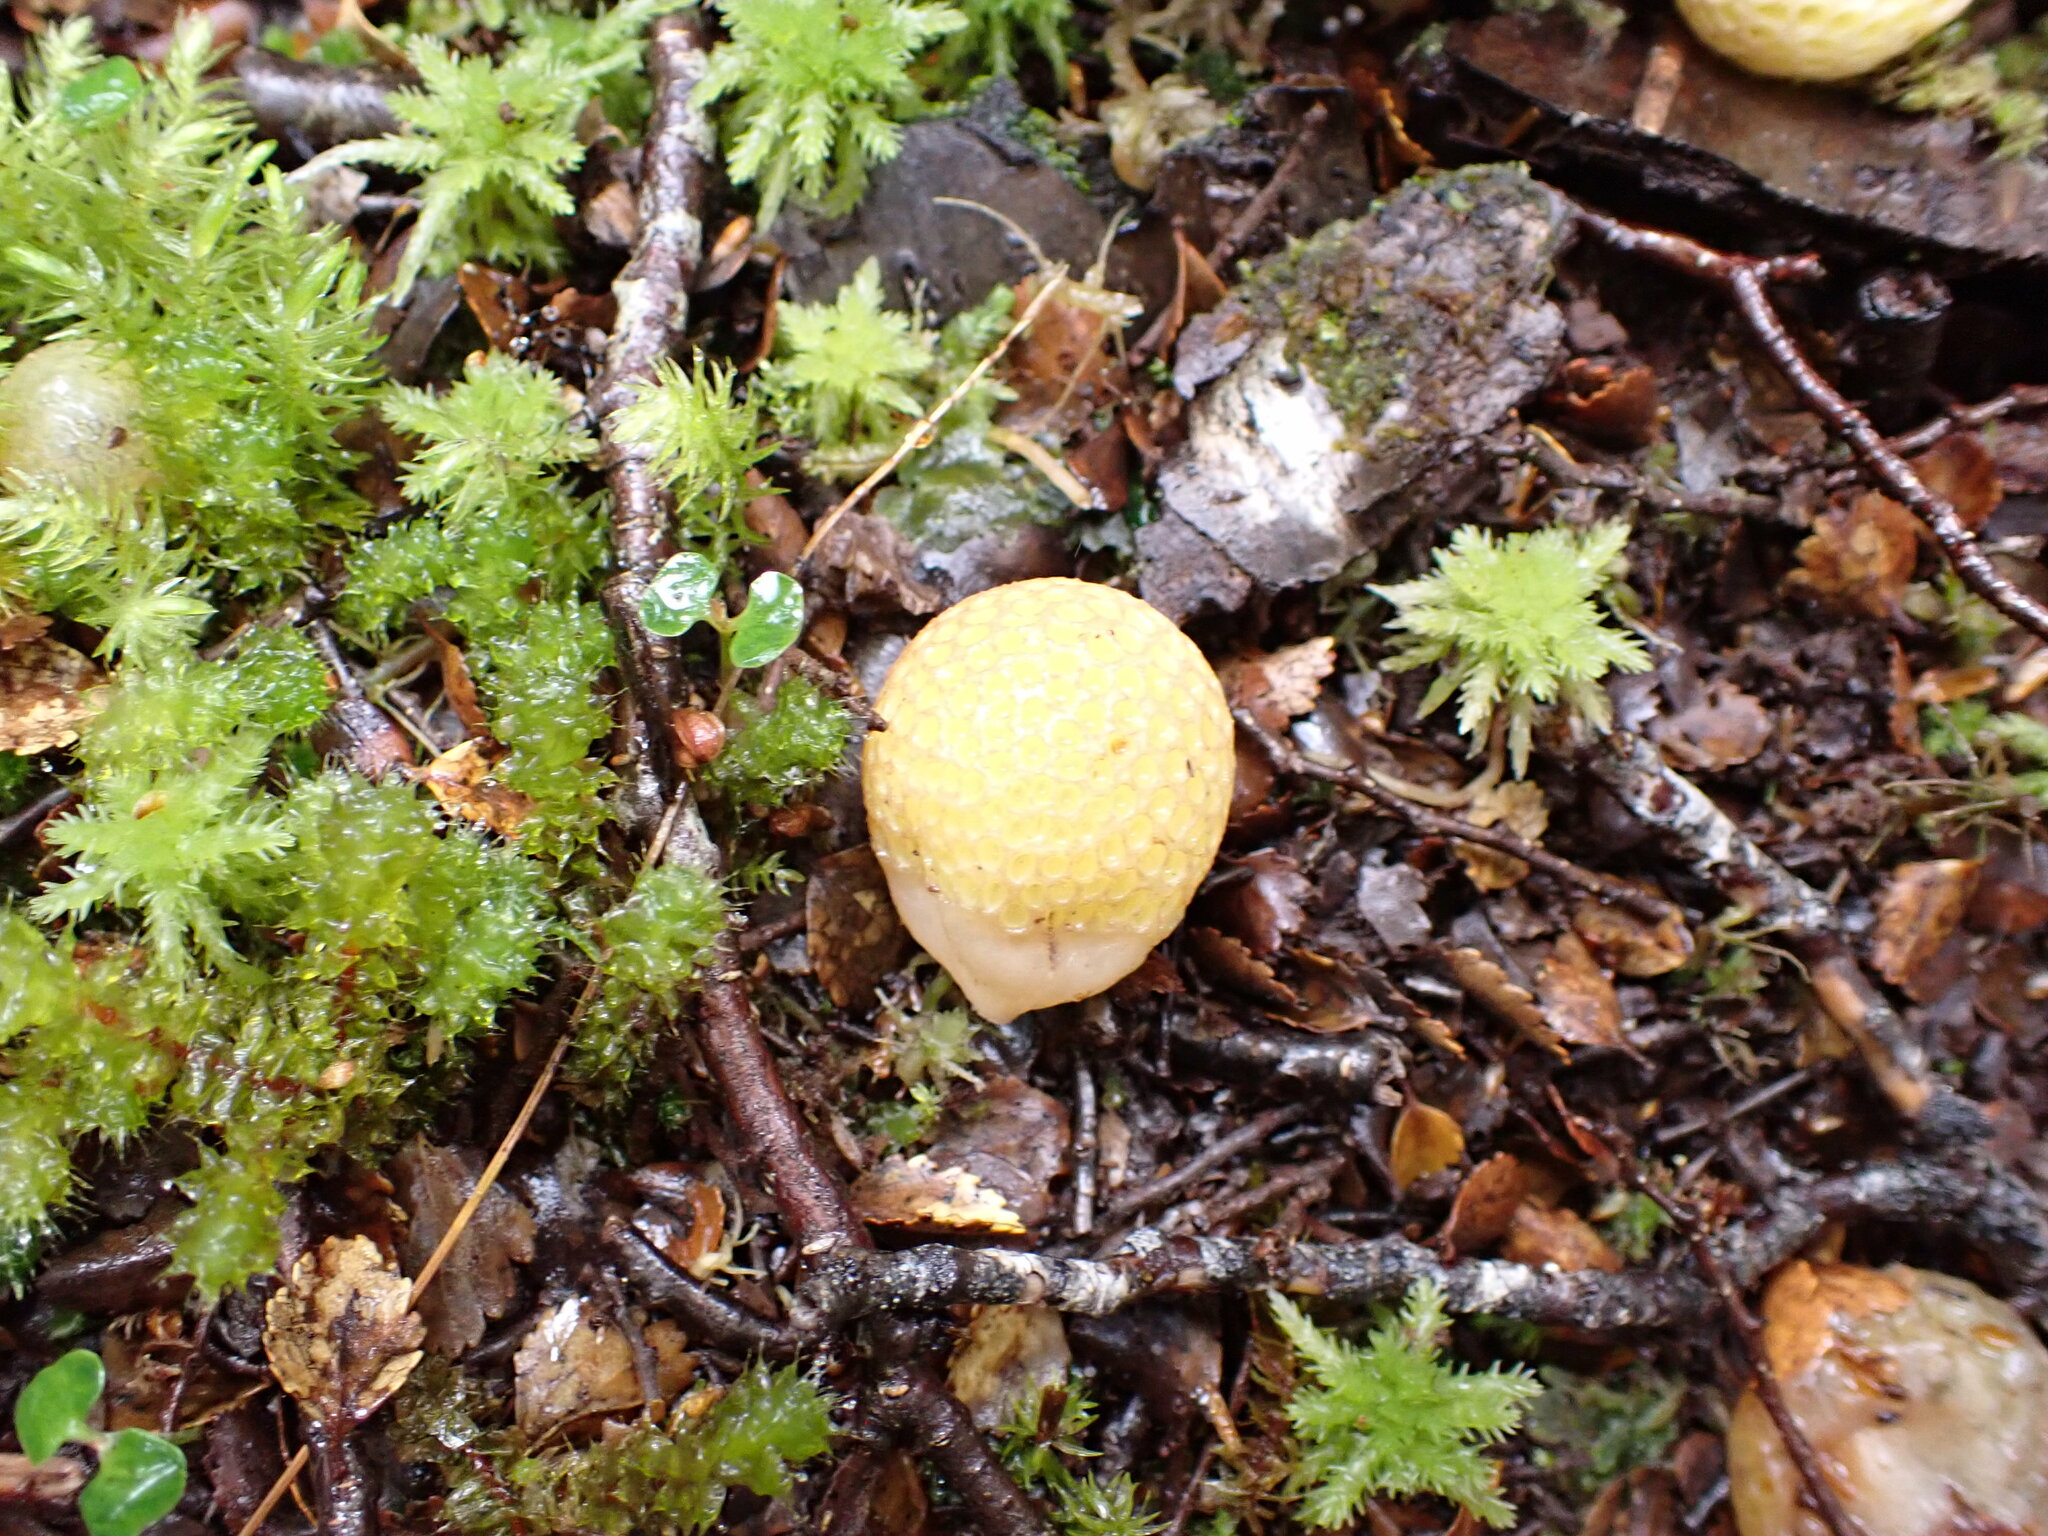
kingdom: Fungi
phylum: Ascomycota
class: Leotiomycetes
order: Cyttariales
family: Cyttariaceae
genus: Cyttaria
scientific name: Cyttaria gunnii
